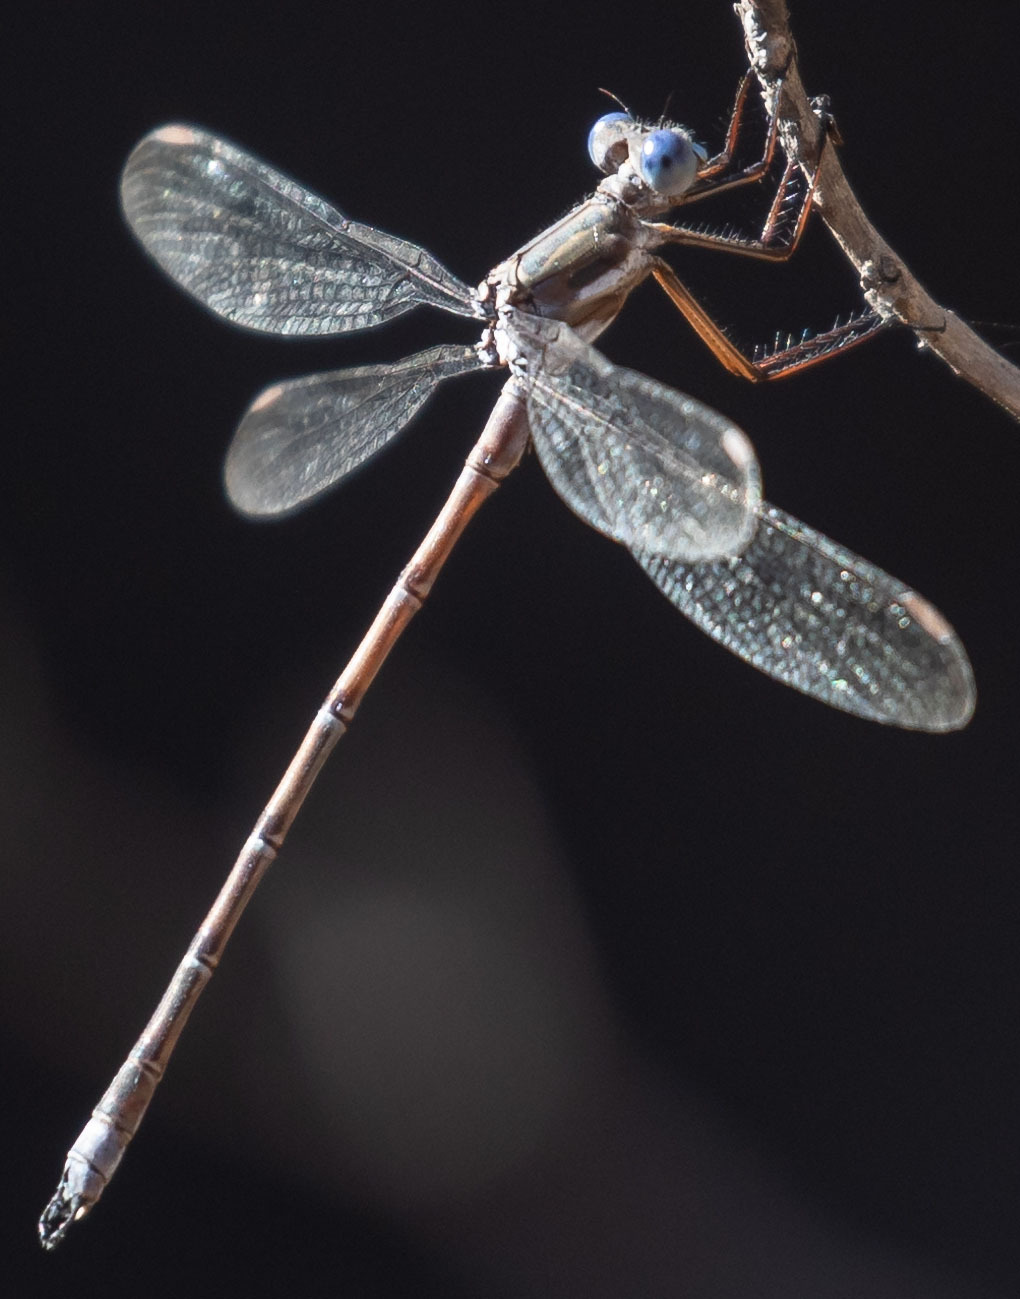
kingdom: Animalia
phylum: Arthropoda
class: Insecta
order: Odonata
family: Lestidae
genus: Archilestes
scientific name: Archilestes californicus
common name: California spreadwing
